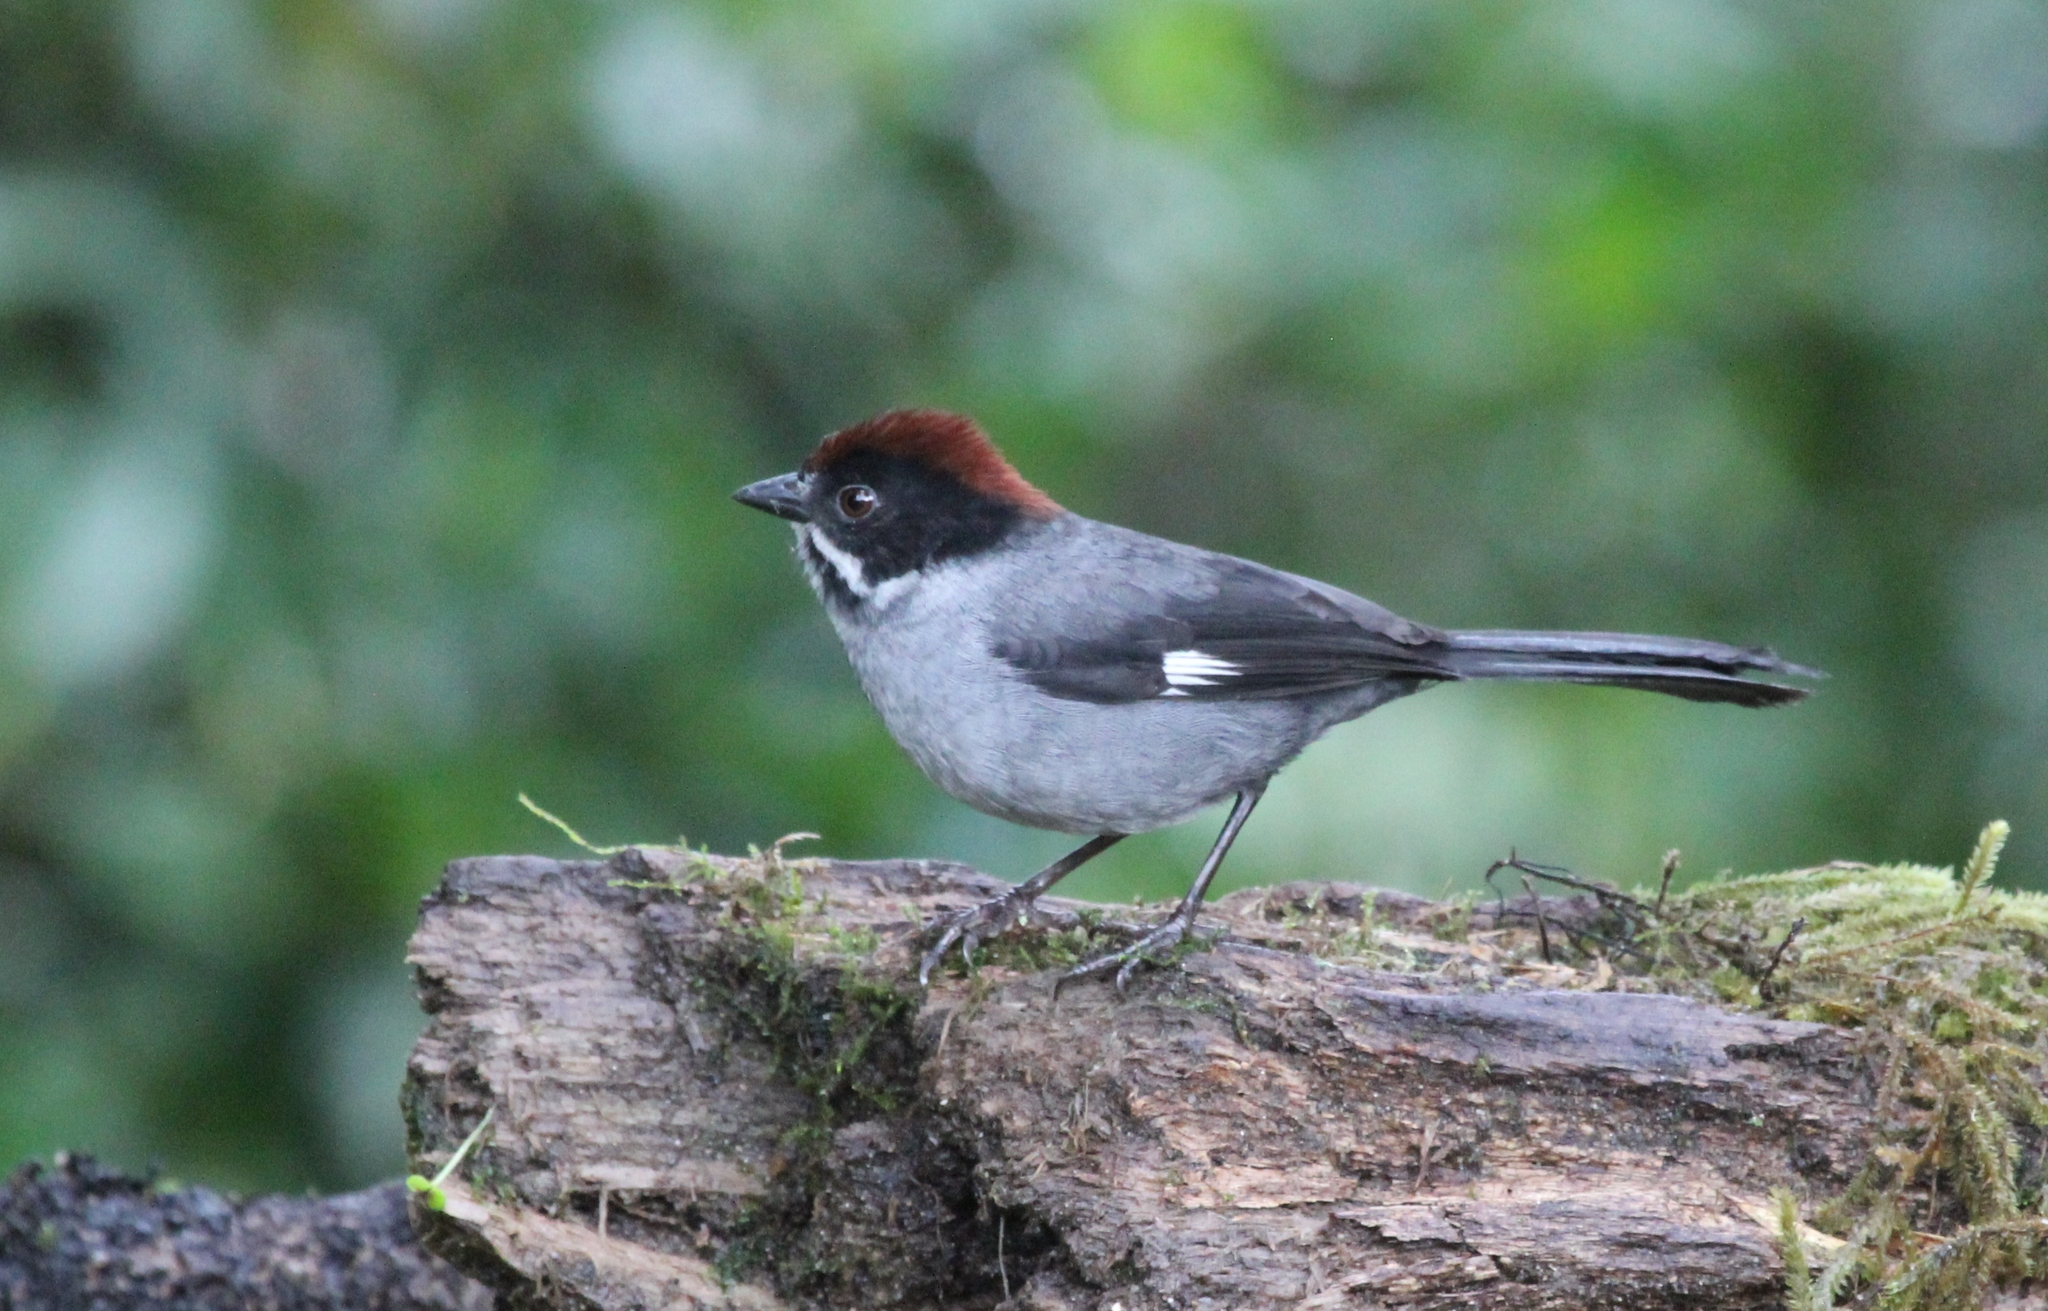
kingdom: Animalia
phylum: Chordata
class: Aves
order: Passeriformes
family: Passerellidae
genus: Atlapetes
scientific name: Atlapetes schistaceus
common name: Slaty brushfinch
